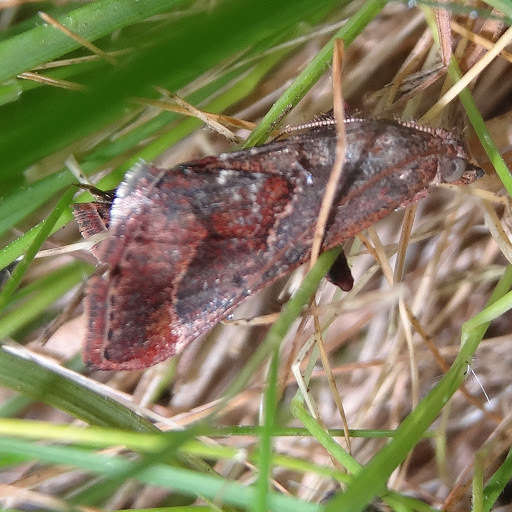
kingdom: Animalia
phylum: Arthropoda
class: Insecta
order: Lepidoptera
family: Pyralidae
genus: Gauna
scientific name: Gauna aegusalis
